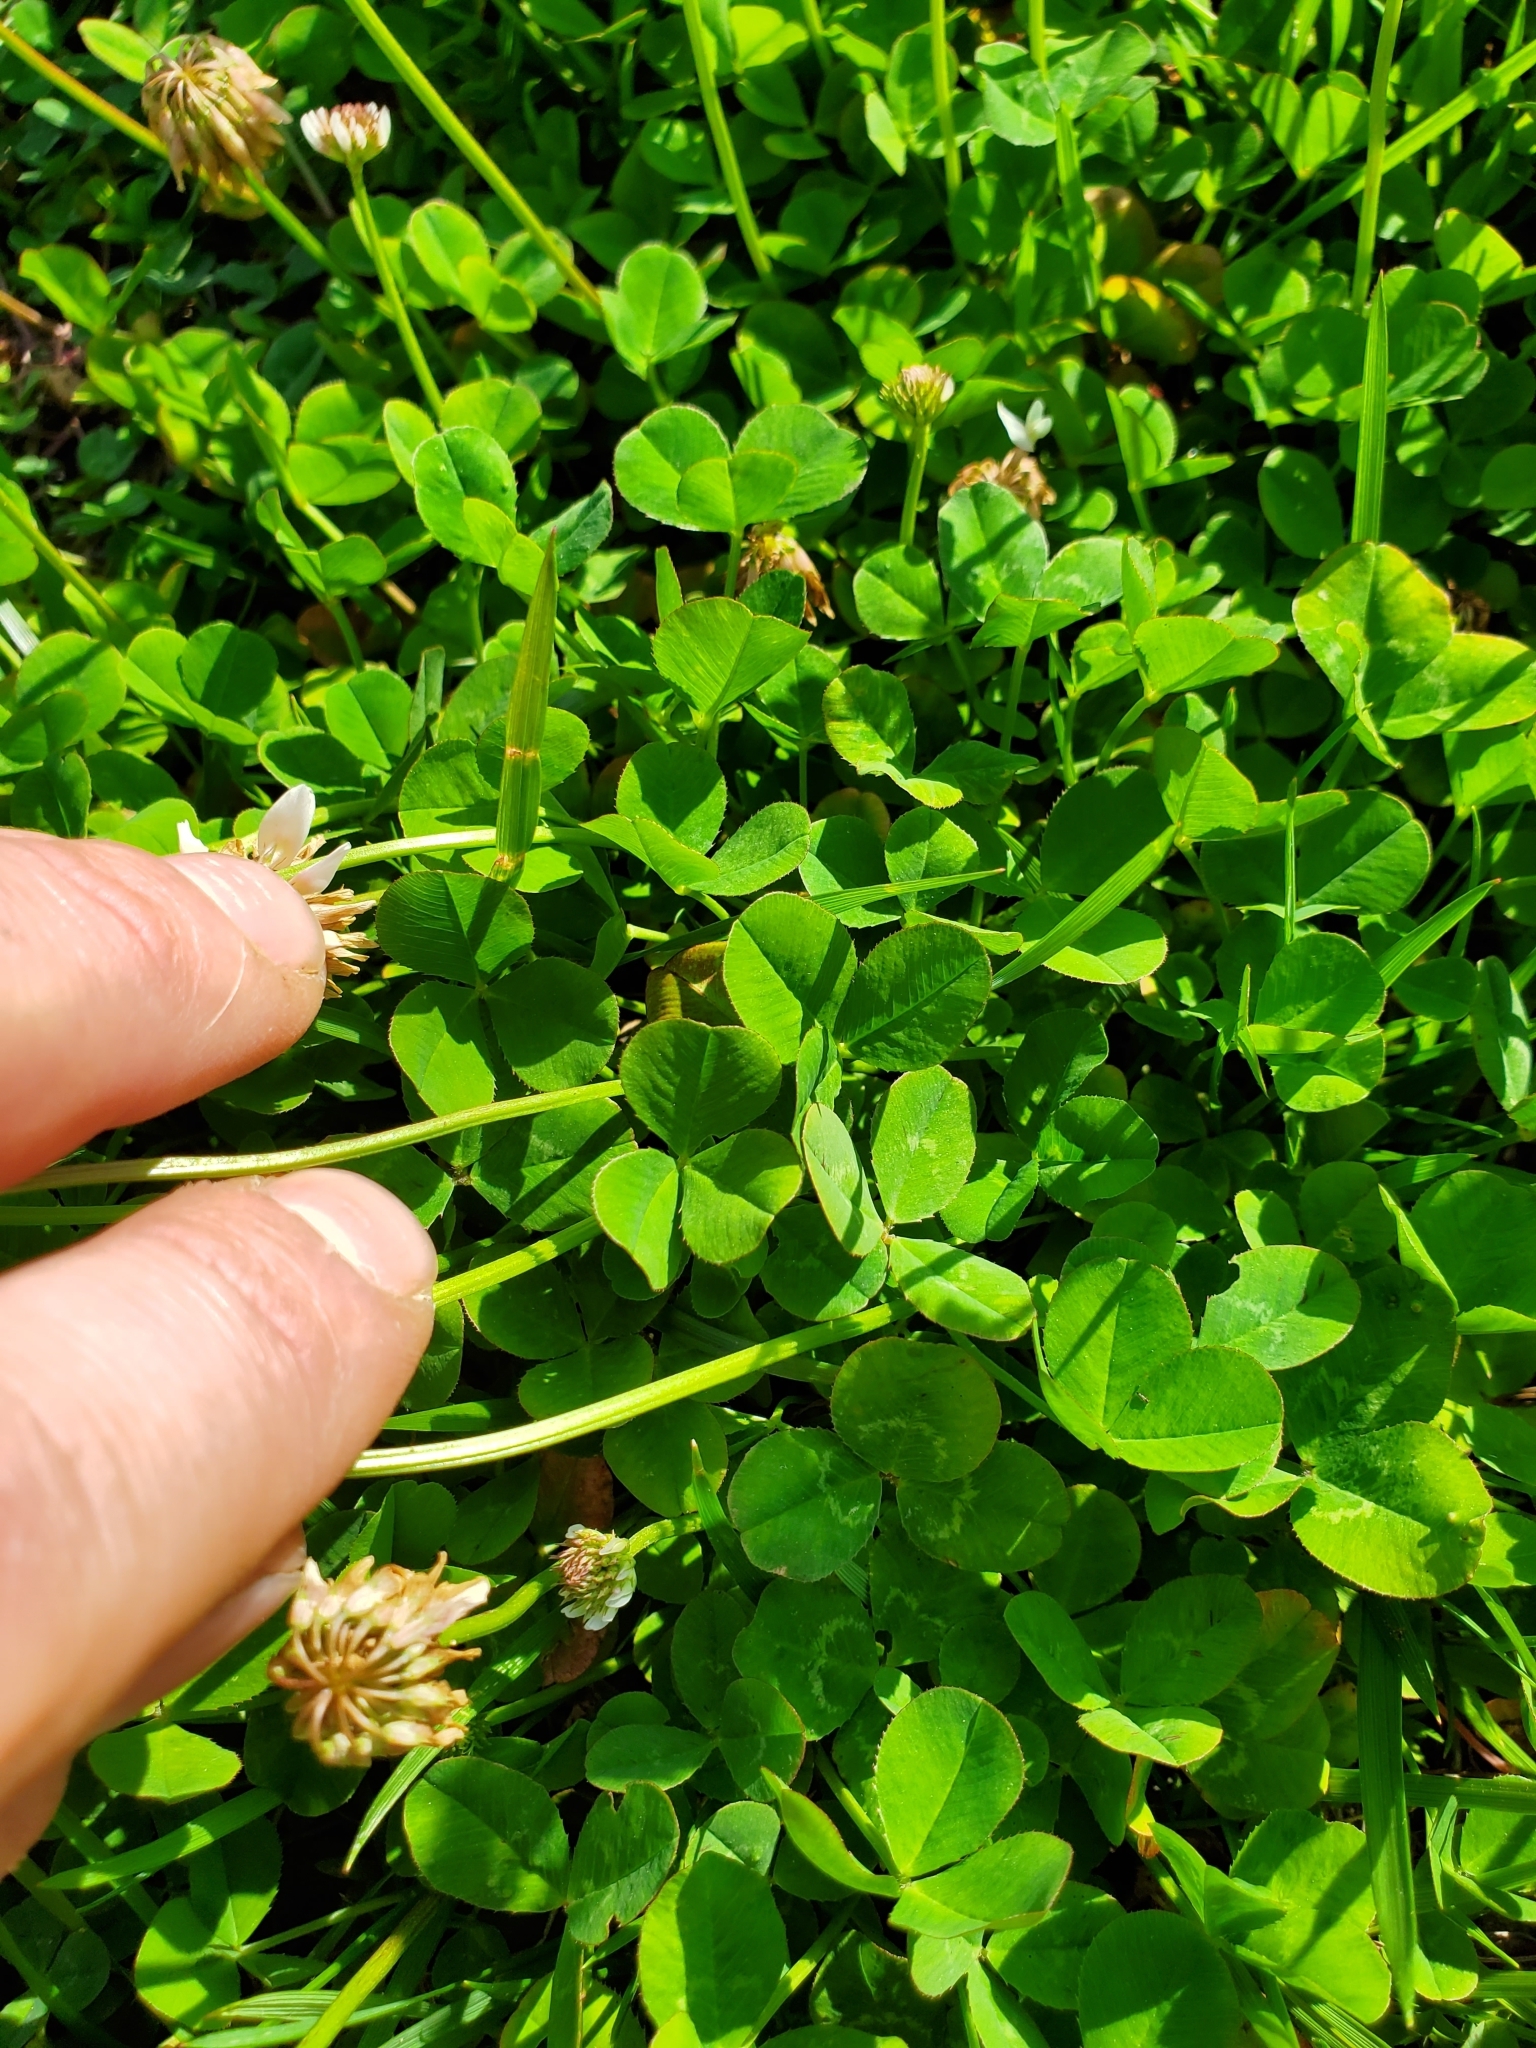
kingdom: Plantae
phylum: Tracheophyta
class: Magnoliopsida
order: Fabales
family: Fabaceae
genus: Trifolium
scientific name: Trifolium repens
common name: White clover
